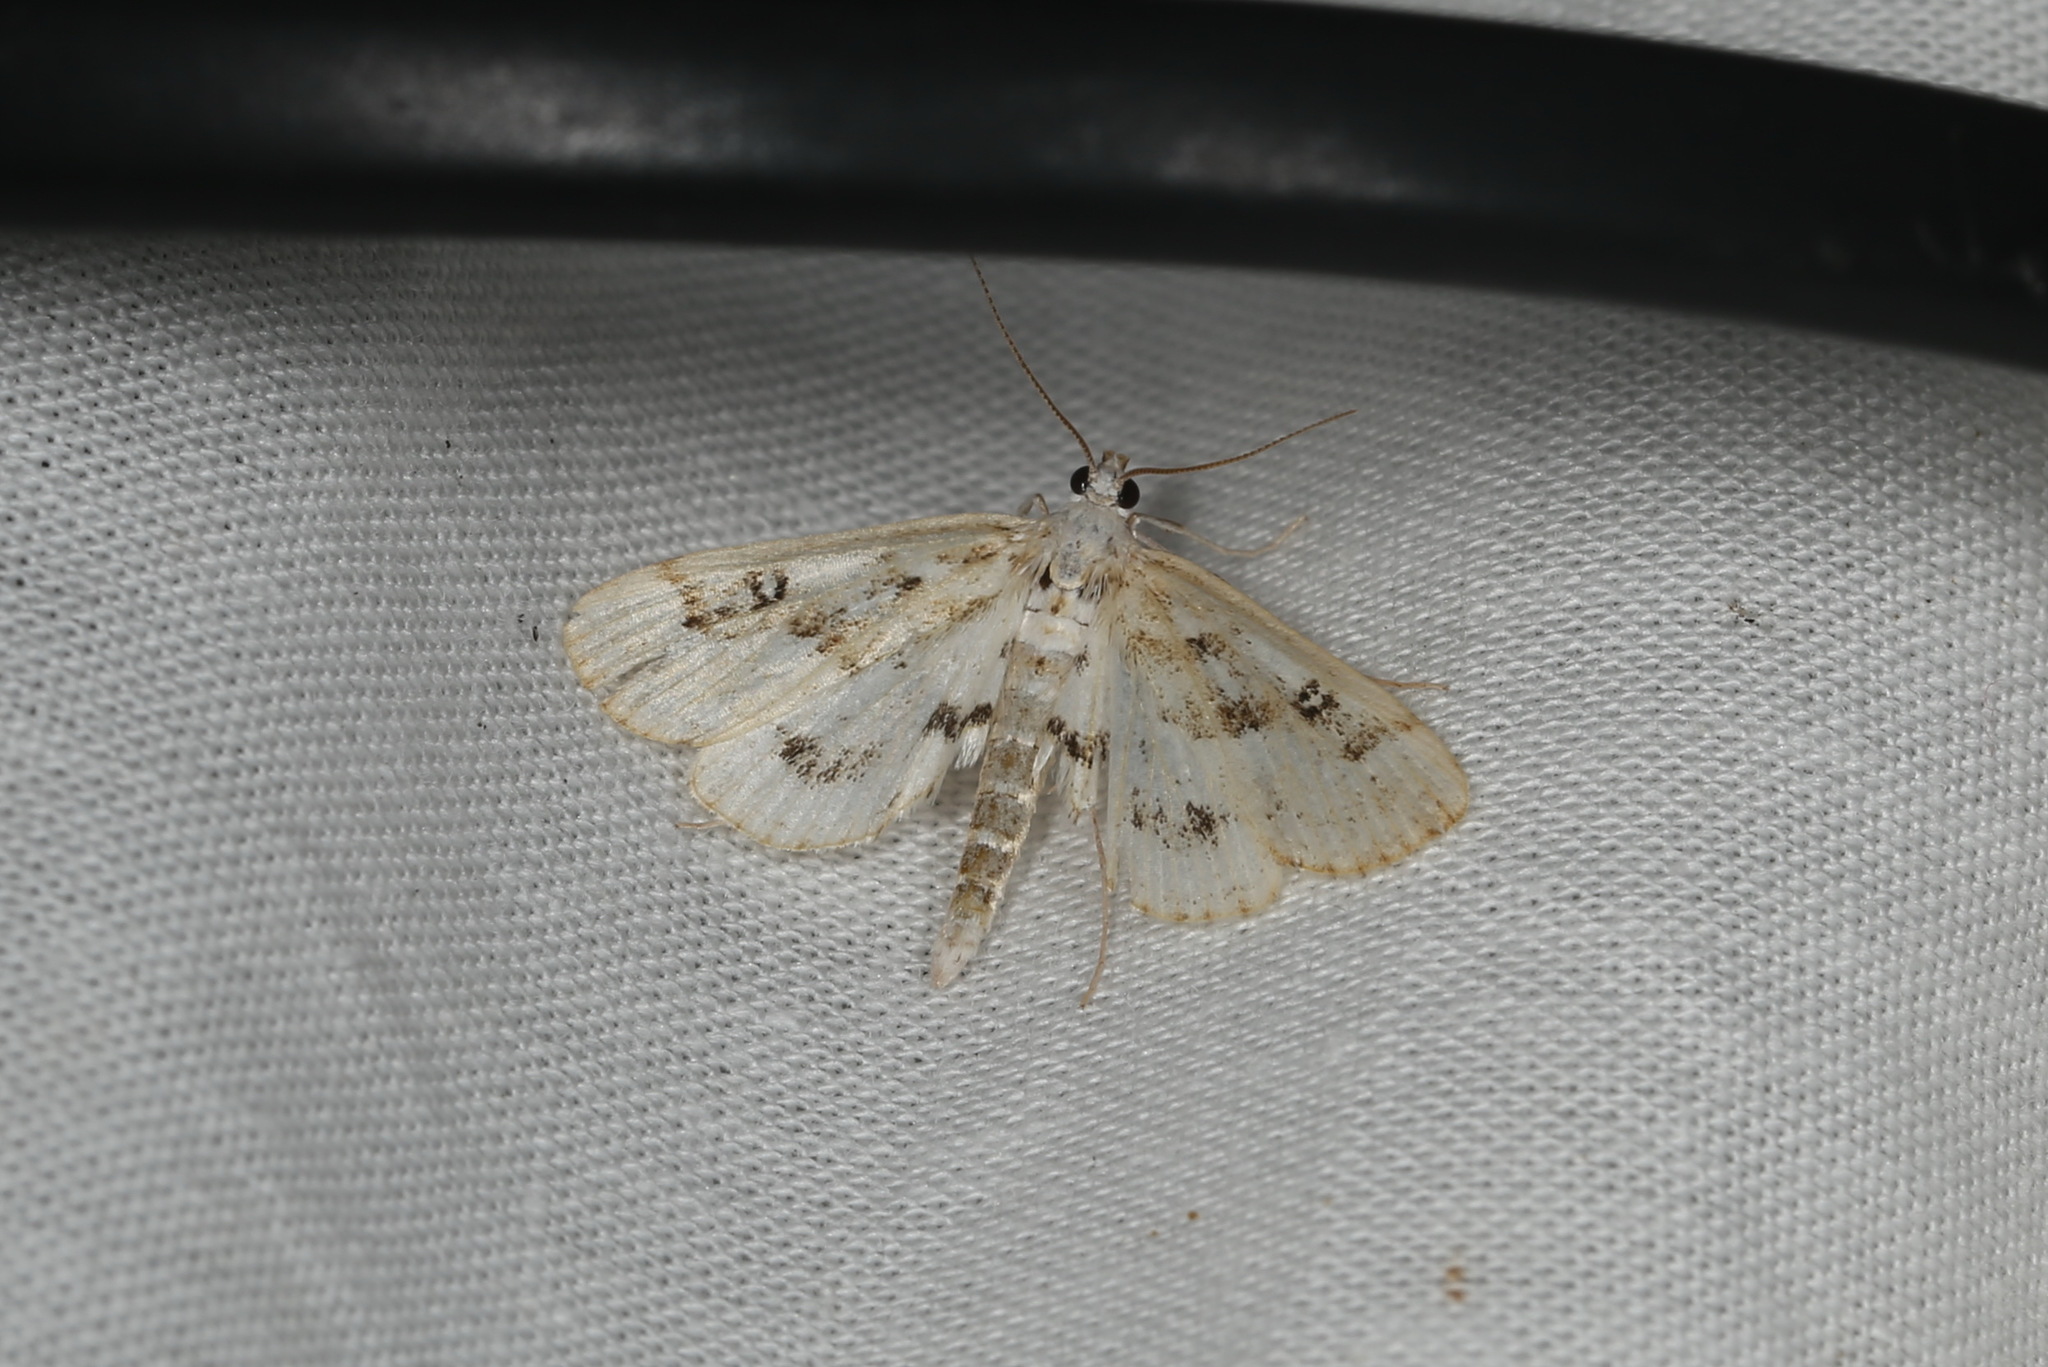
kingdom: Animalia
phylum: Arthropoda
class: Insecta
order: Lepidoptera
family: Crambidae
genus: Parapoynx
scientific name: Parapoynx stratiotata
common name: Ringed china-mark
